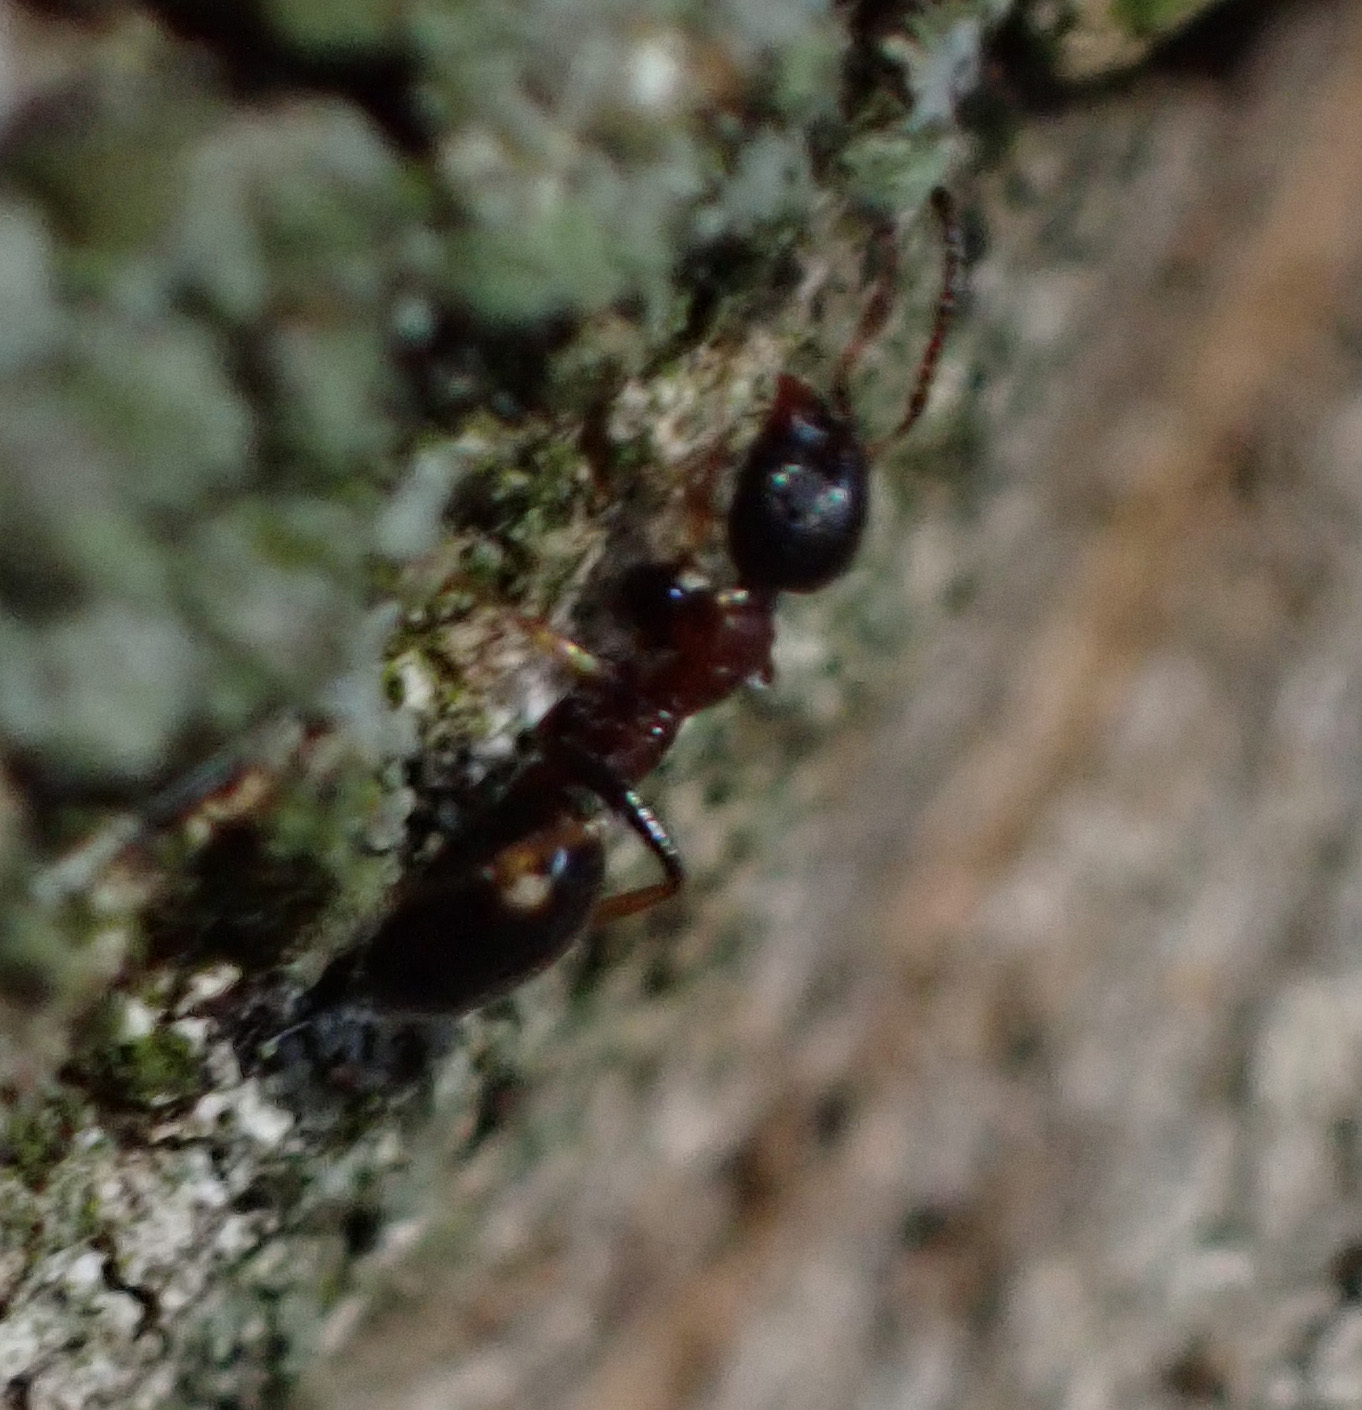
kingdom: Animalia
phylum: Arthropoda
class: Insecta
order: Hymenoptera
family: Formicidae
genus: Dolichoderus
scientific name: Dolichoderus quadripunctatus
